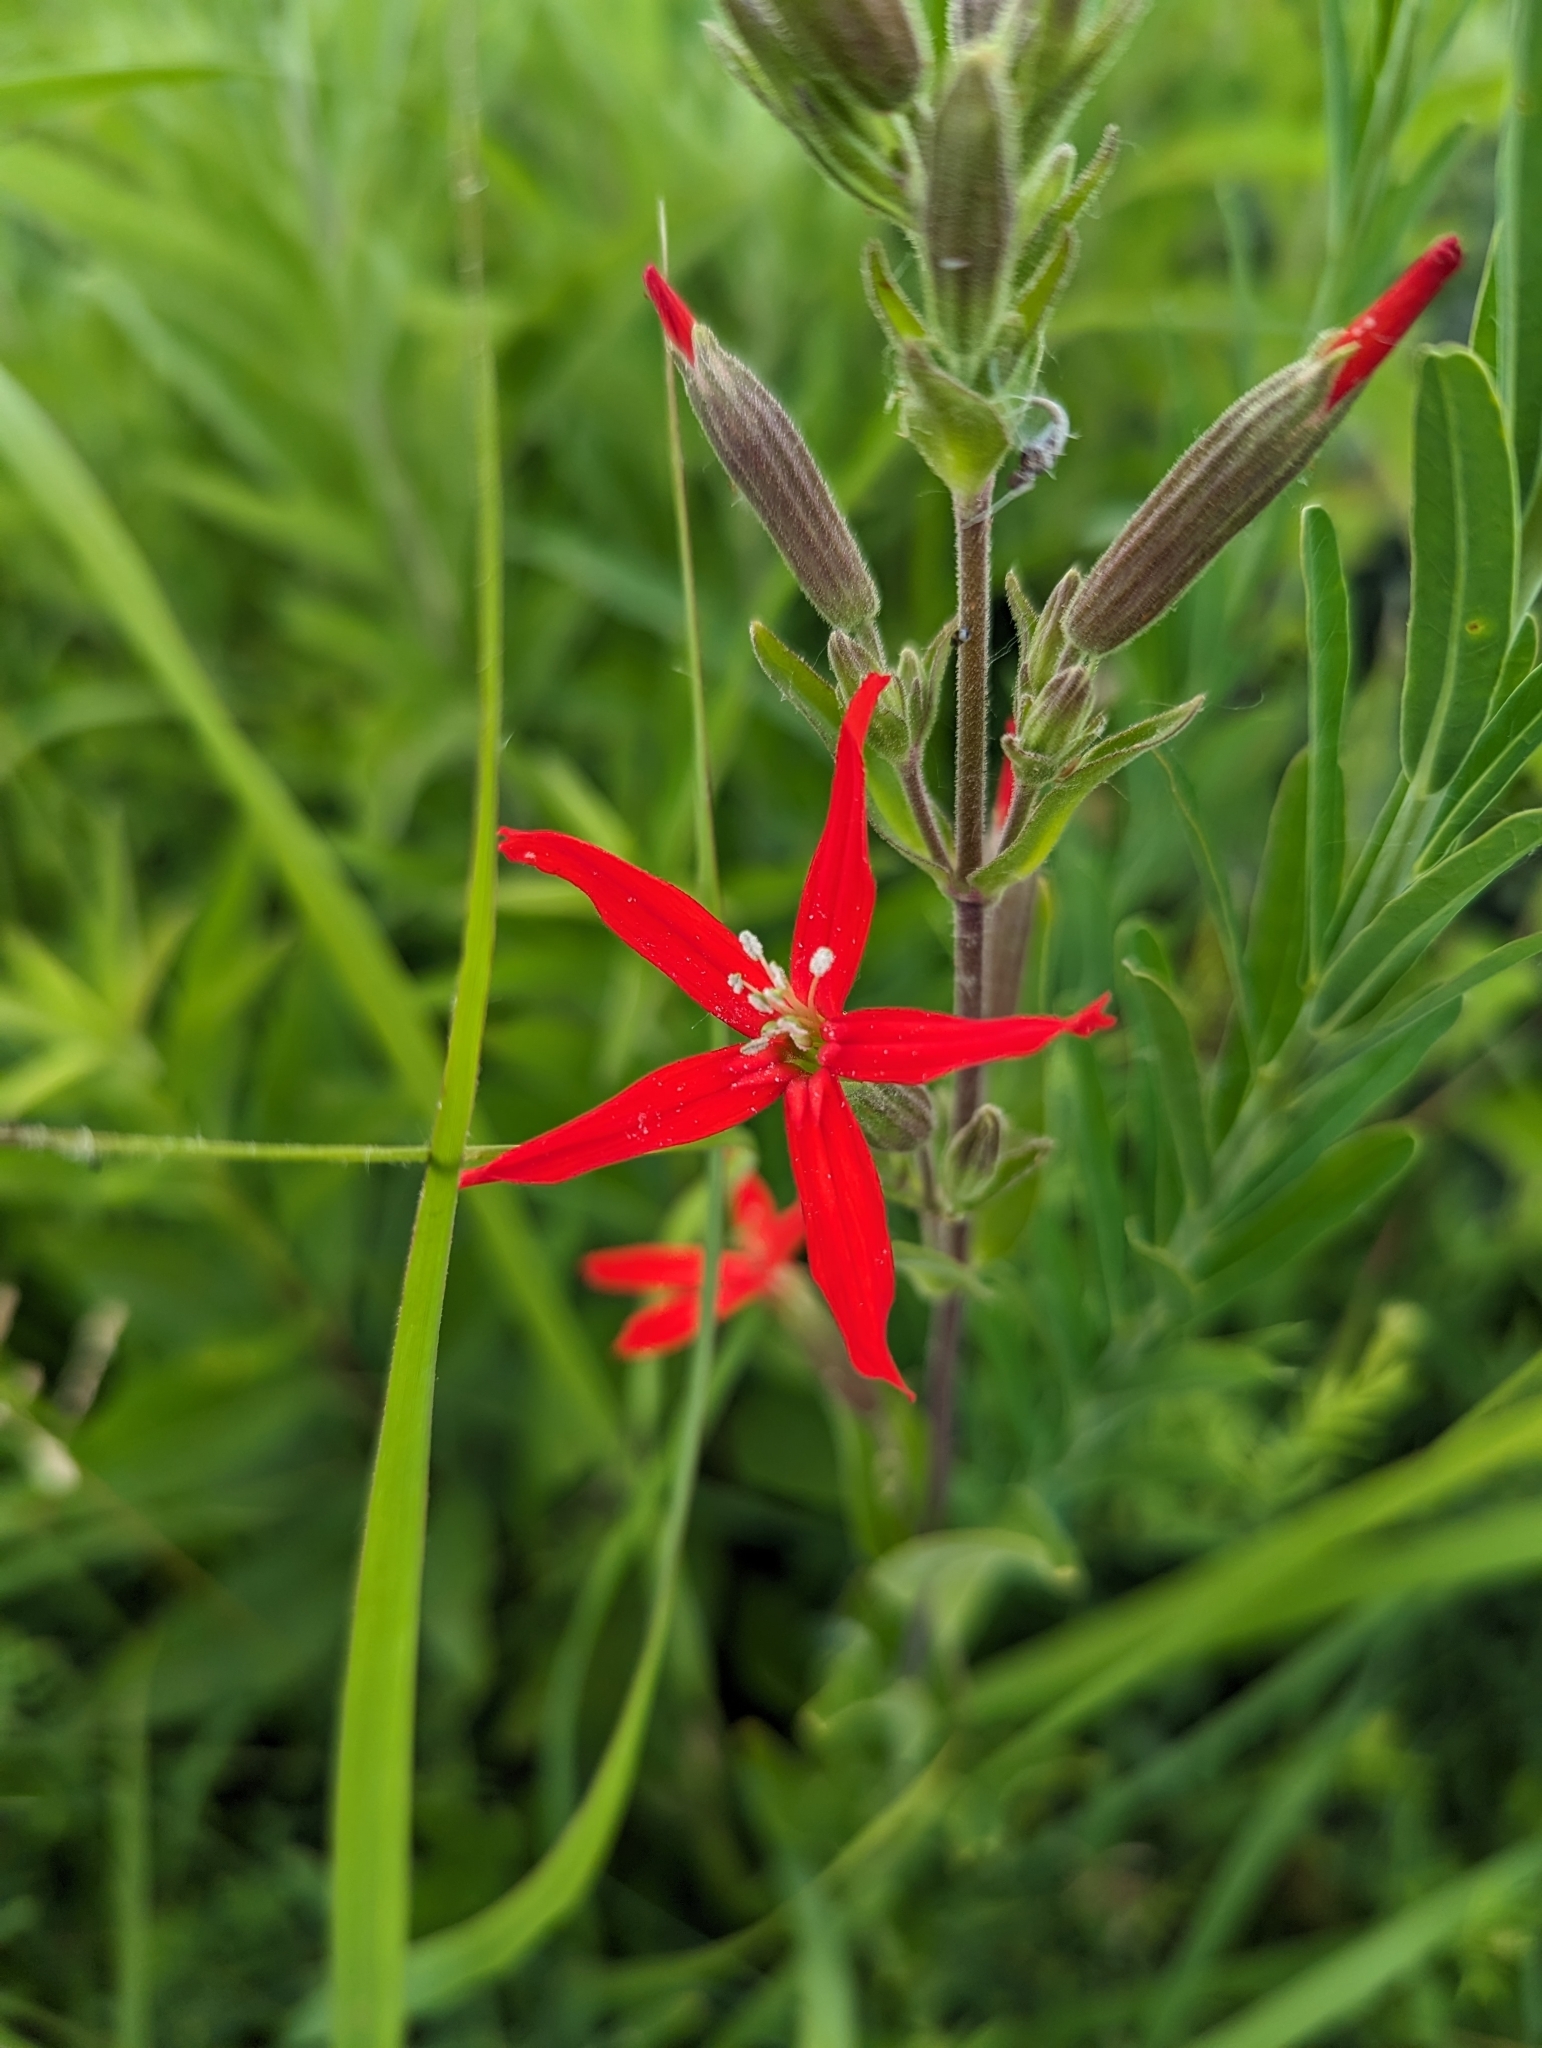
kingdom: Plantae
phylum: Tracheophyta
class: Magnoliopsida
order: Caryophyllales
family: Caryophyllaceae
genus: Silene
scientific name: Silene regia
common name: Royal catchfly
